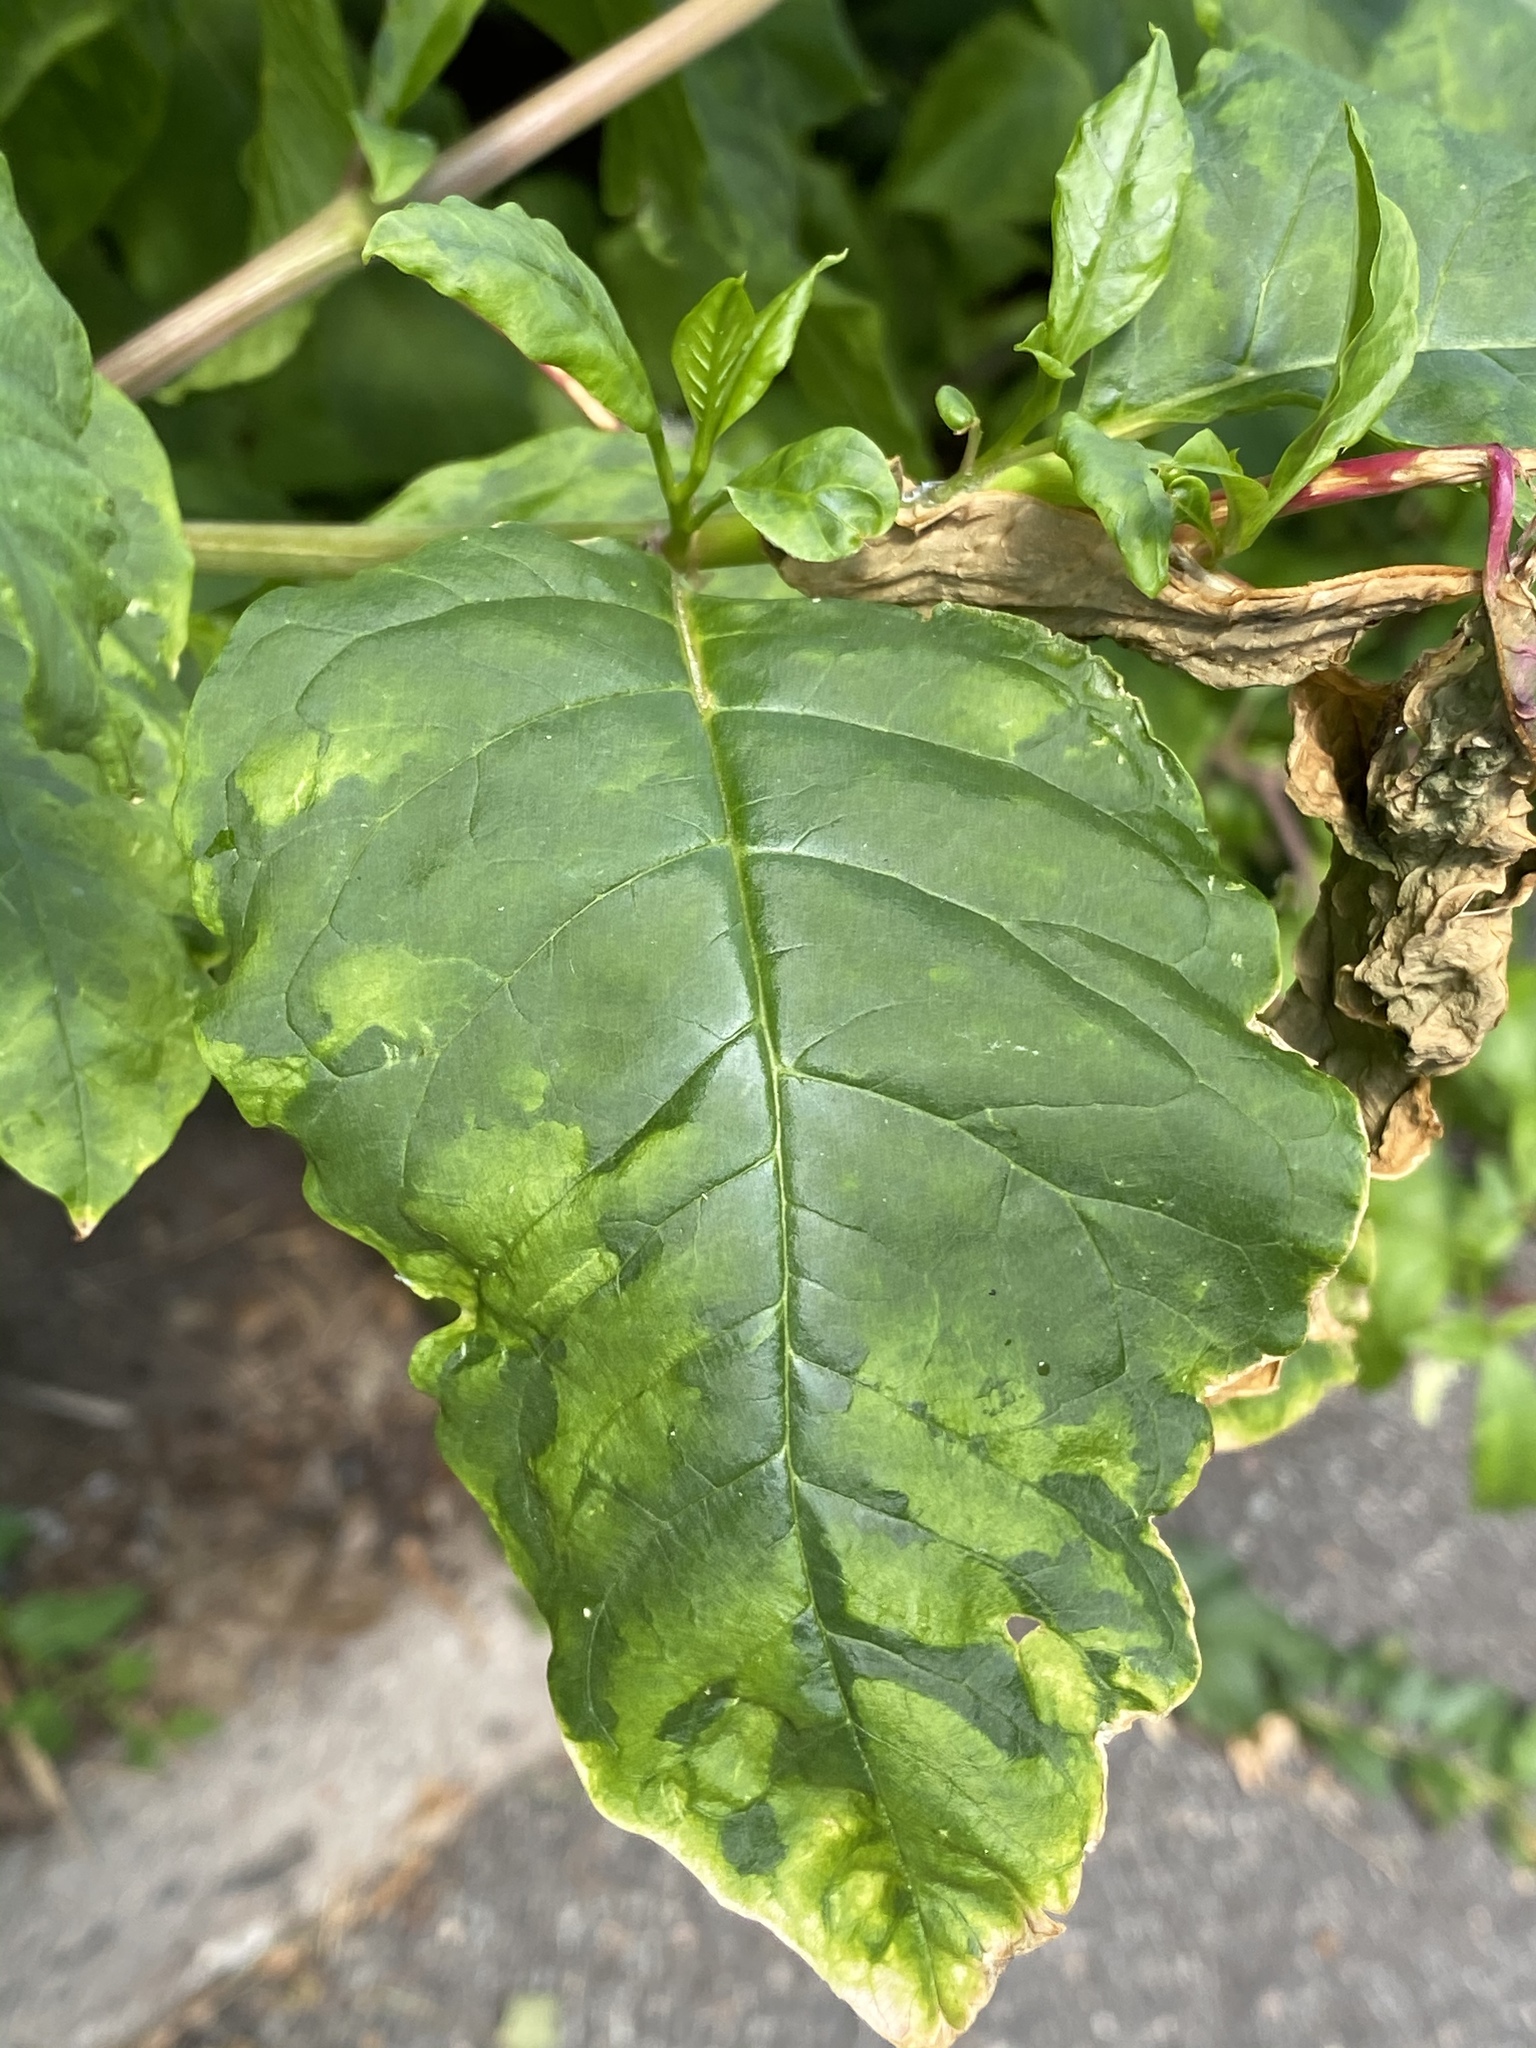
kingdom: Viruses
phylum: Pisuviricota
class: Stelpaviricetes
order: Patatavirales
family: Potyviridae
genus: Potyvirus
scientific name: Potyvirus Pokeweed mosaic virus
